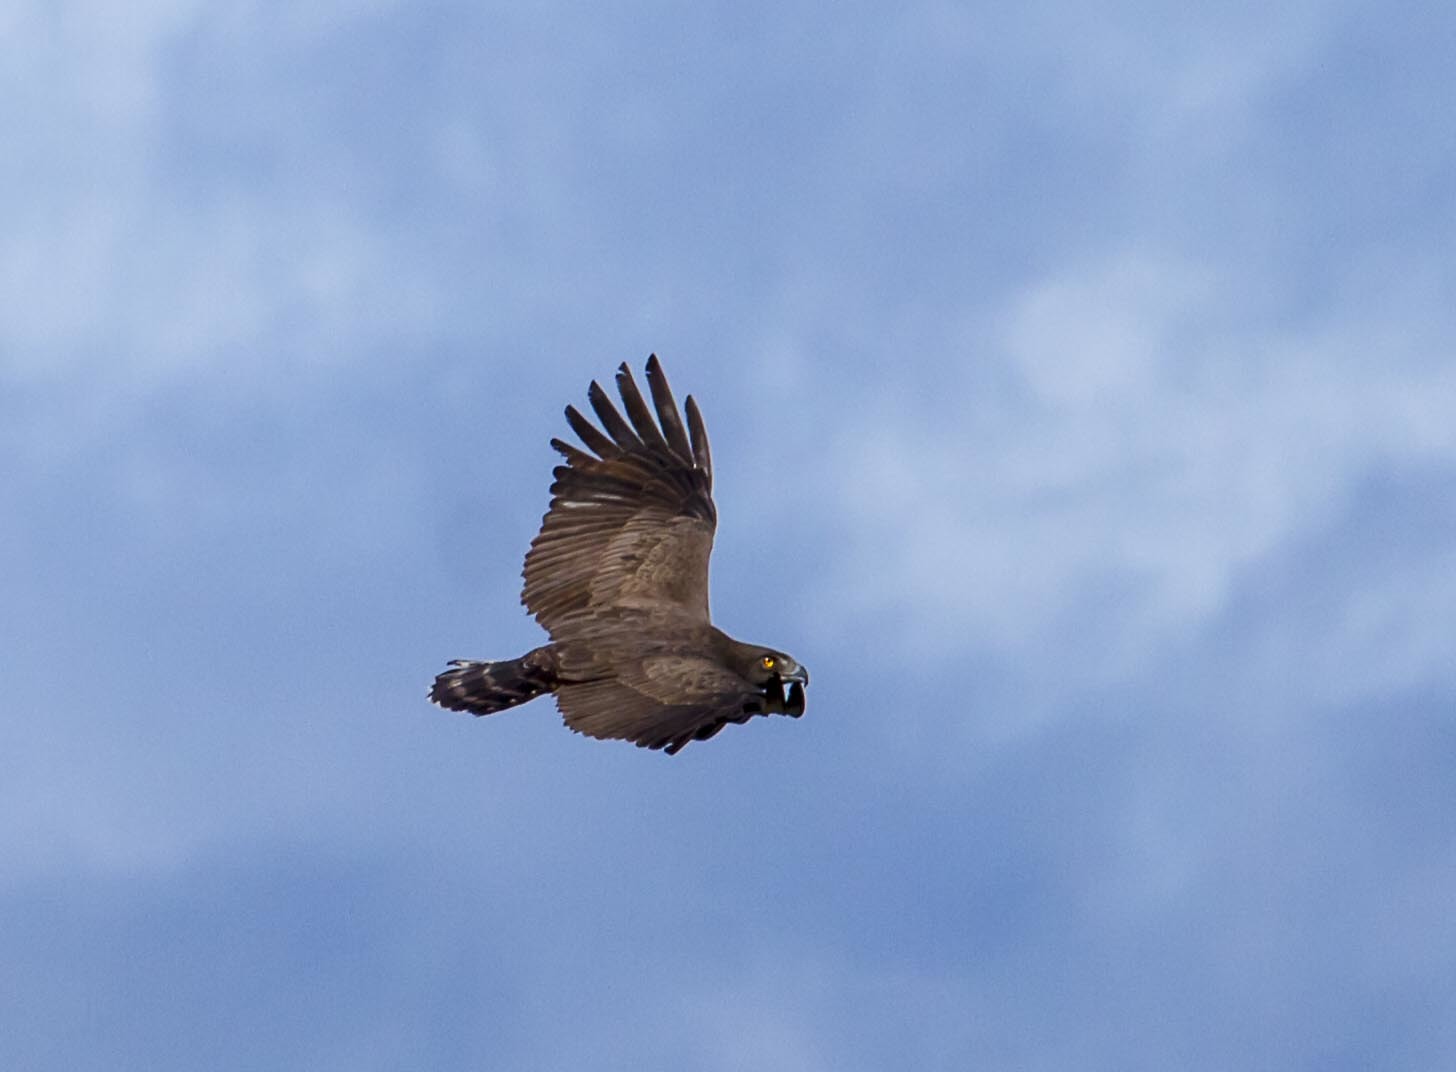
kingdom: Animalia
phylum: Chordata
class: Aves
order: Accipitriformes
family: Accipitridae
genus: Circaetus
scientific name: Circaetus cinereus
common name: Brown snake eagle
